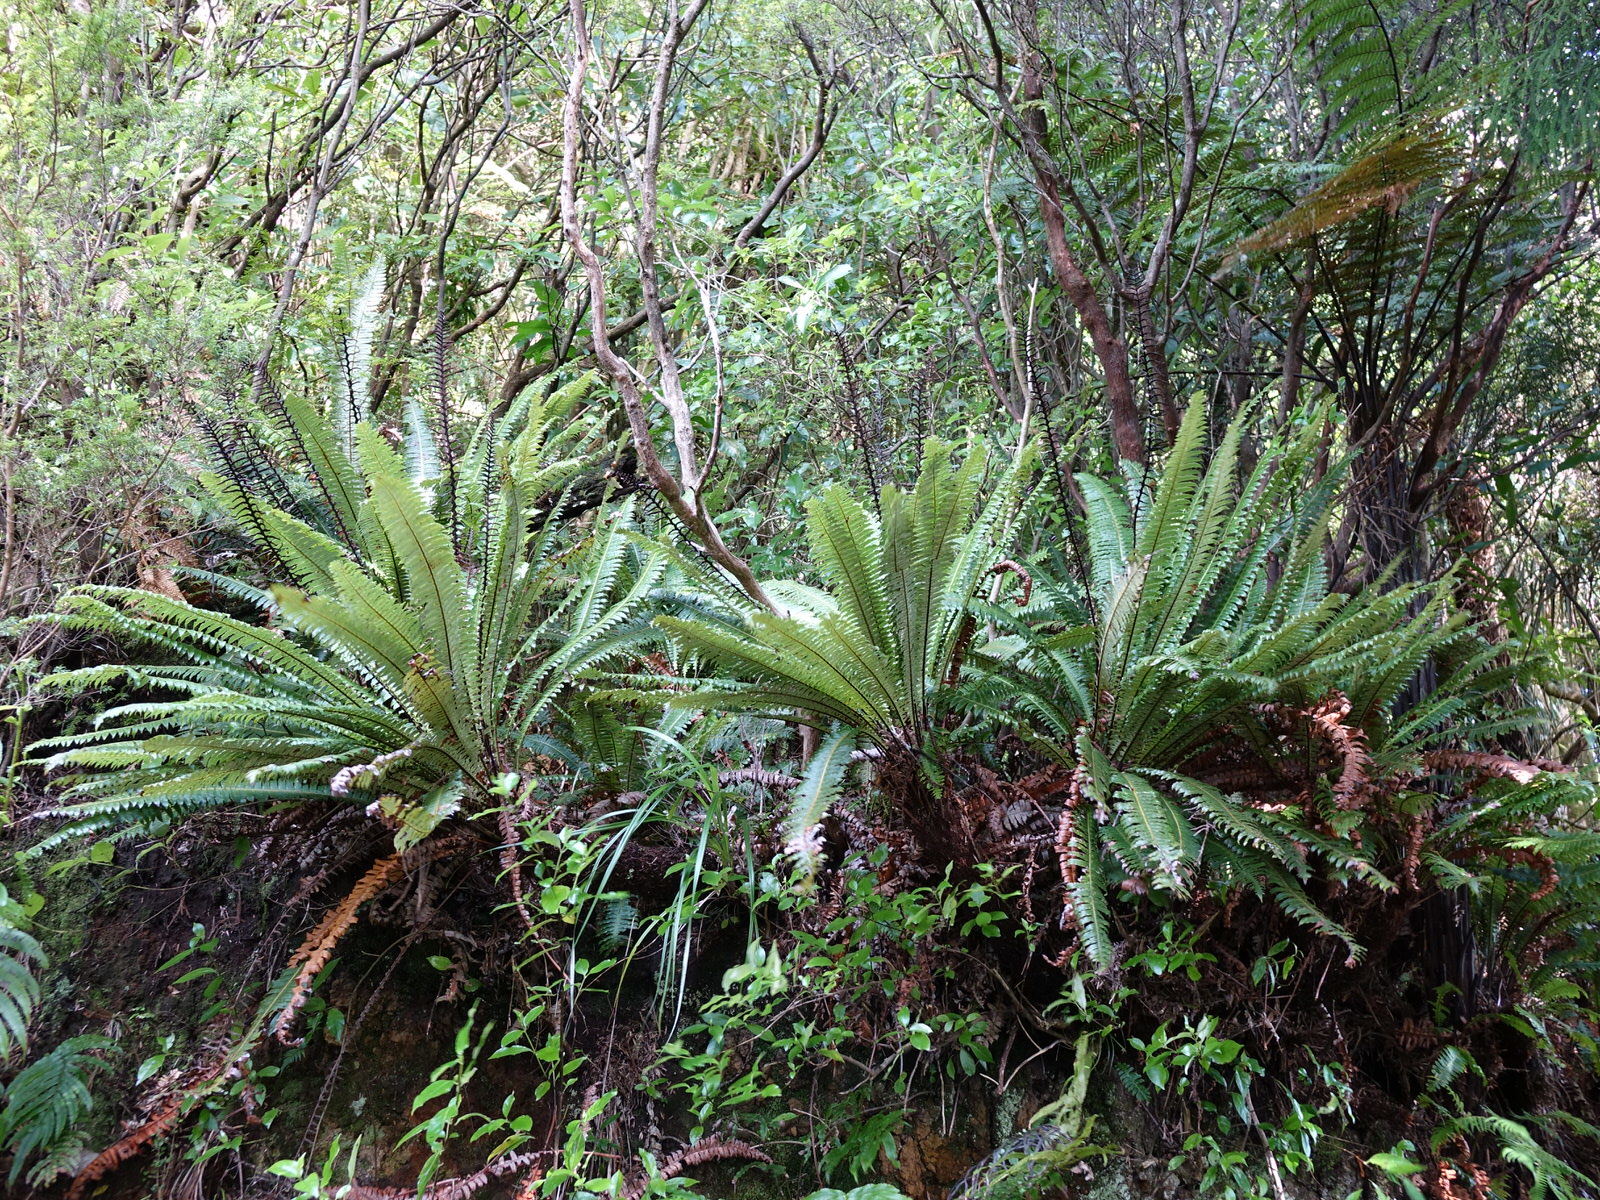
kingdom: Plantae
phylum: Tracheophyta
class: Polypodiopsida
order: Polypodiales
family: Blechnaceae
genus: Lomaria
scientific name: Lomaria discolor
